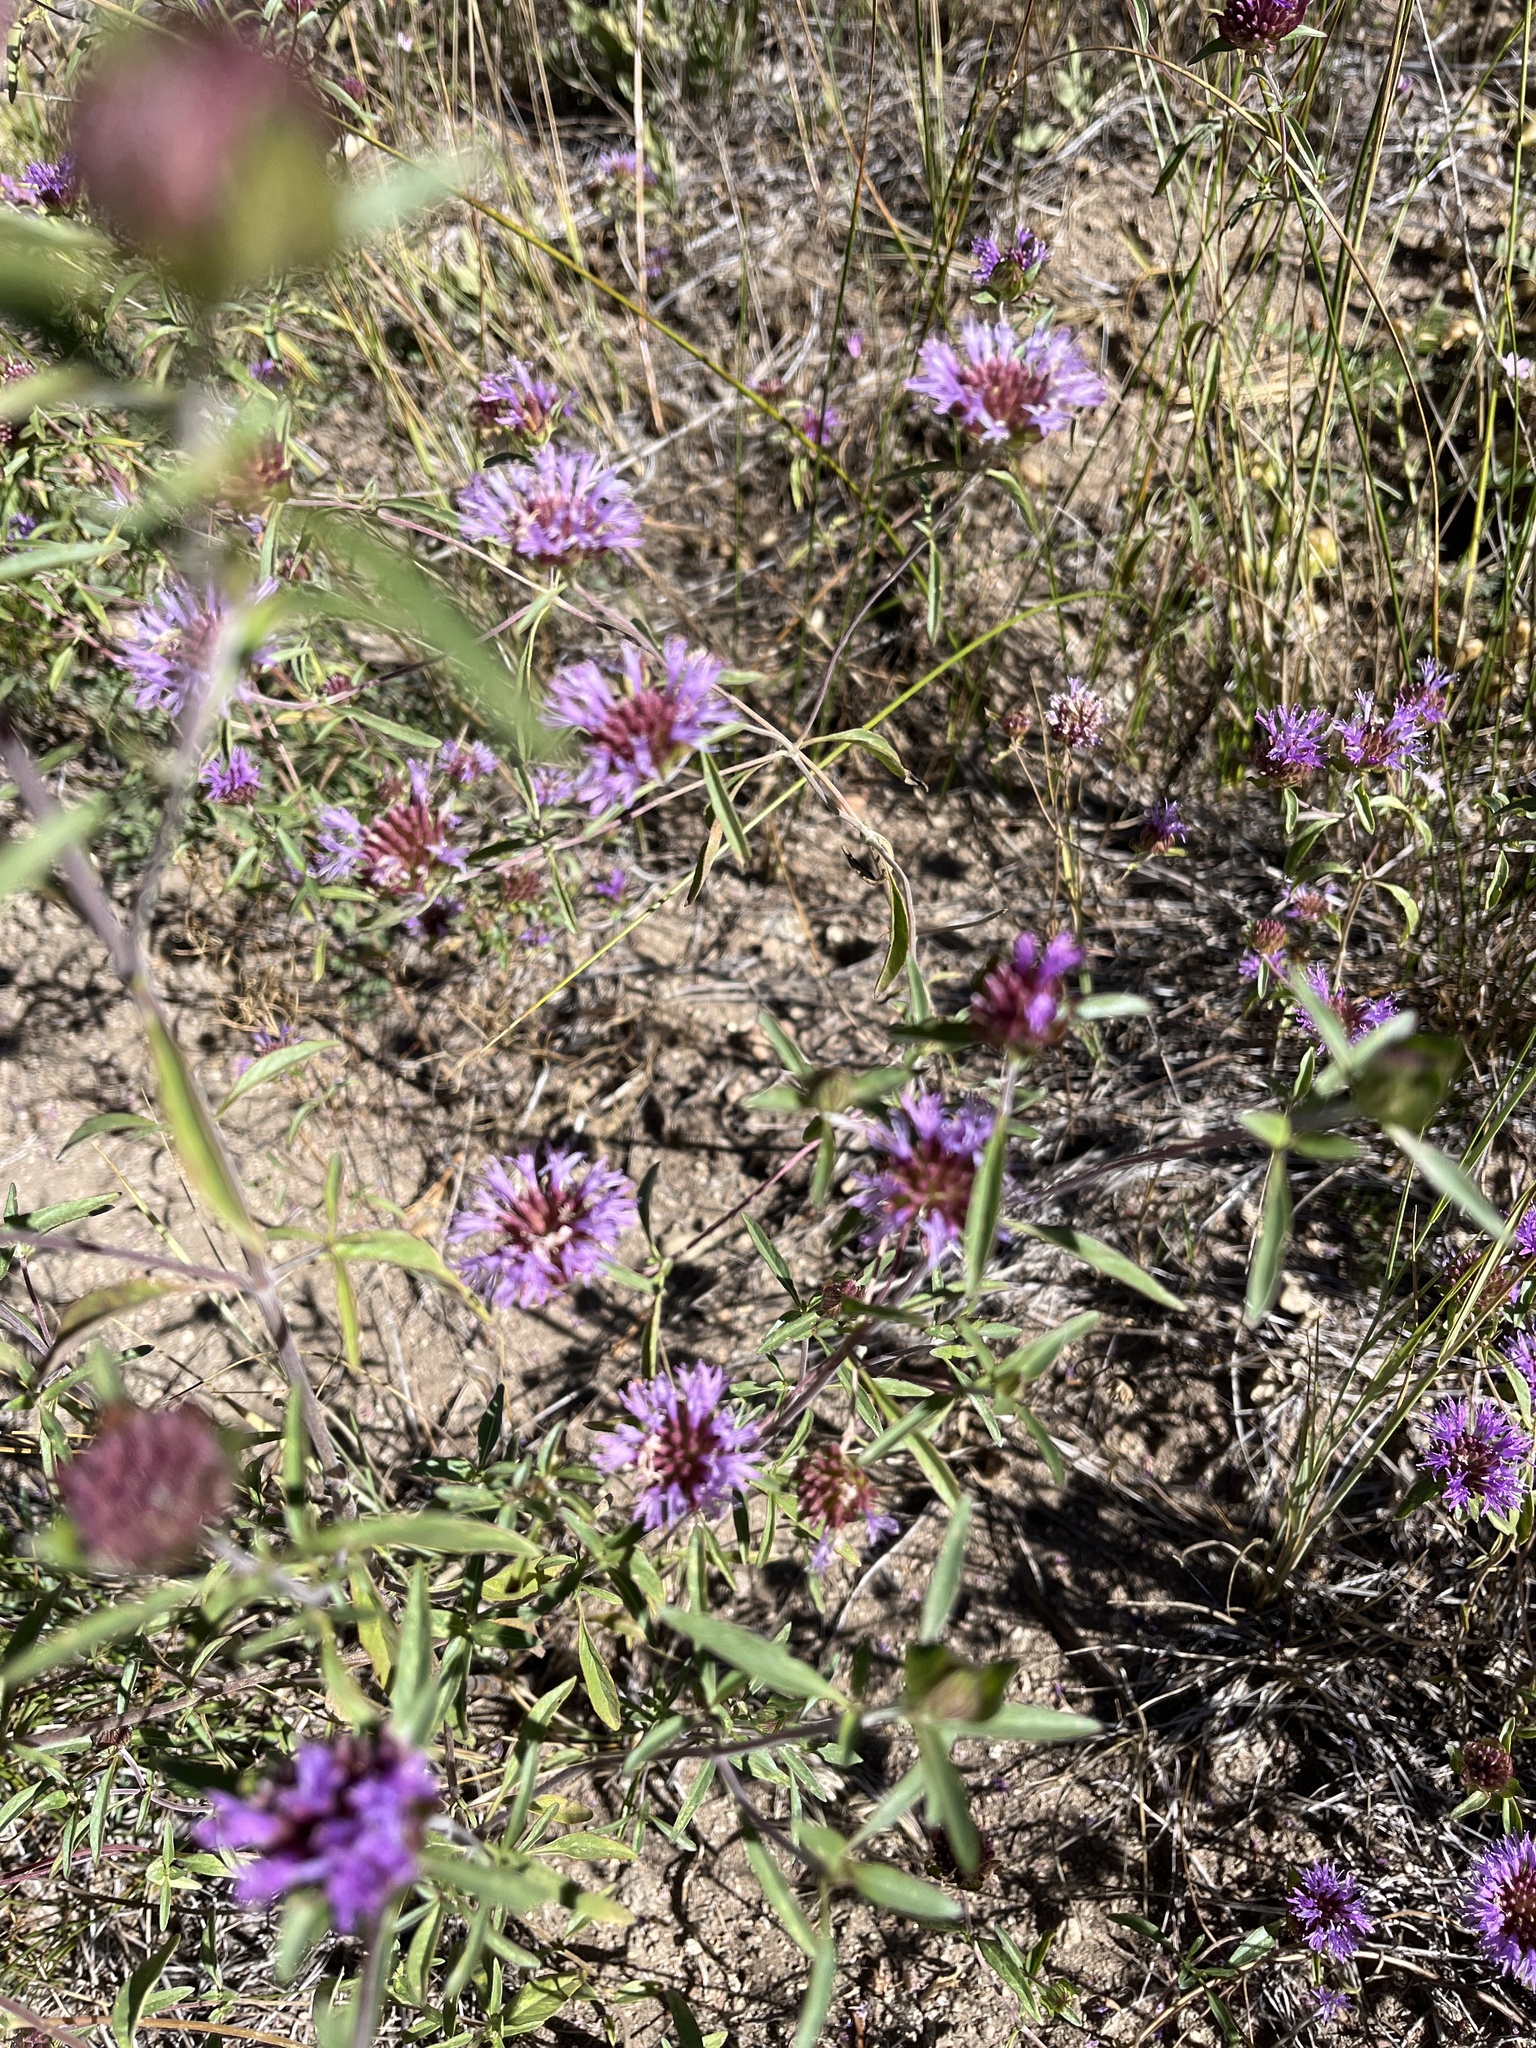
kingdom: Plantae
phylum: Tracheophyta
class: Magnoliopsida
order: Lamiales
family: Lamiaceae
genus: Monardella
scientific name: Monardella breweri
